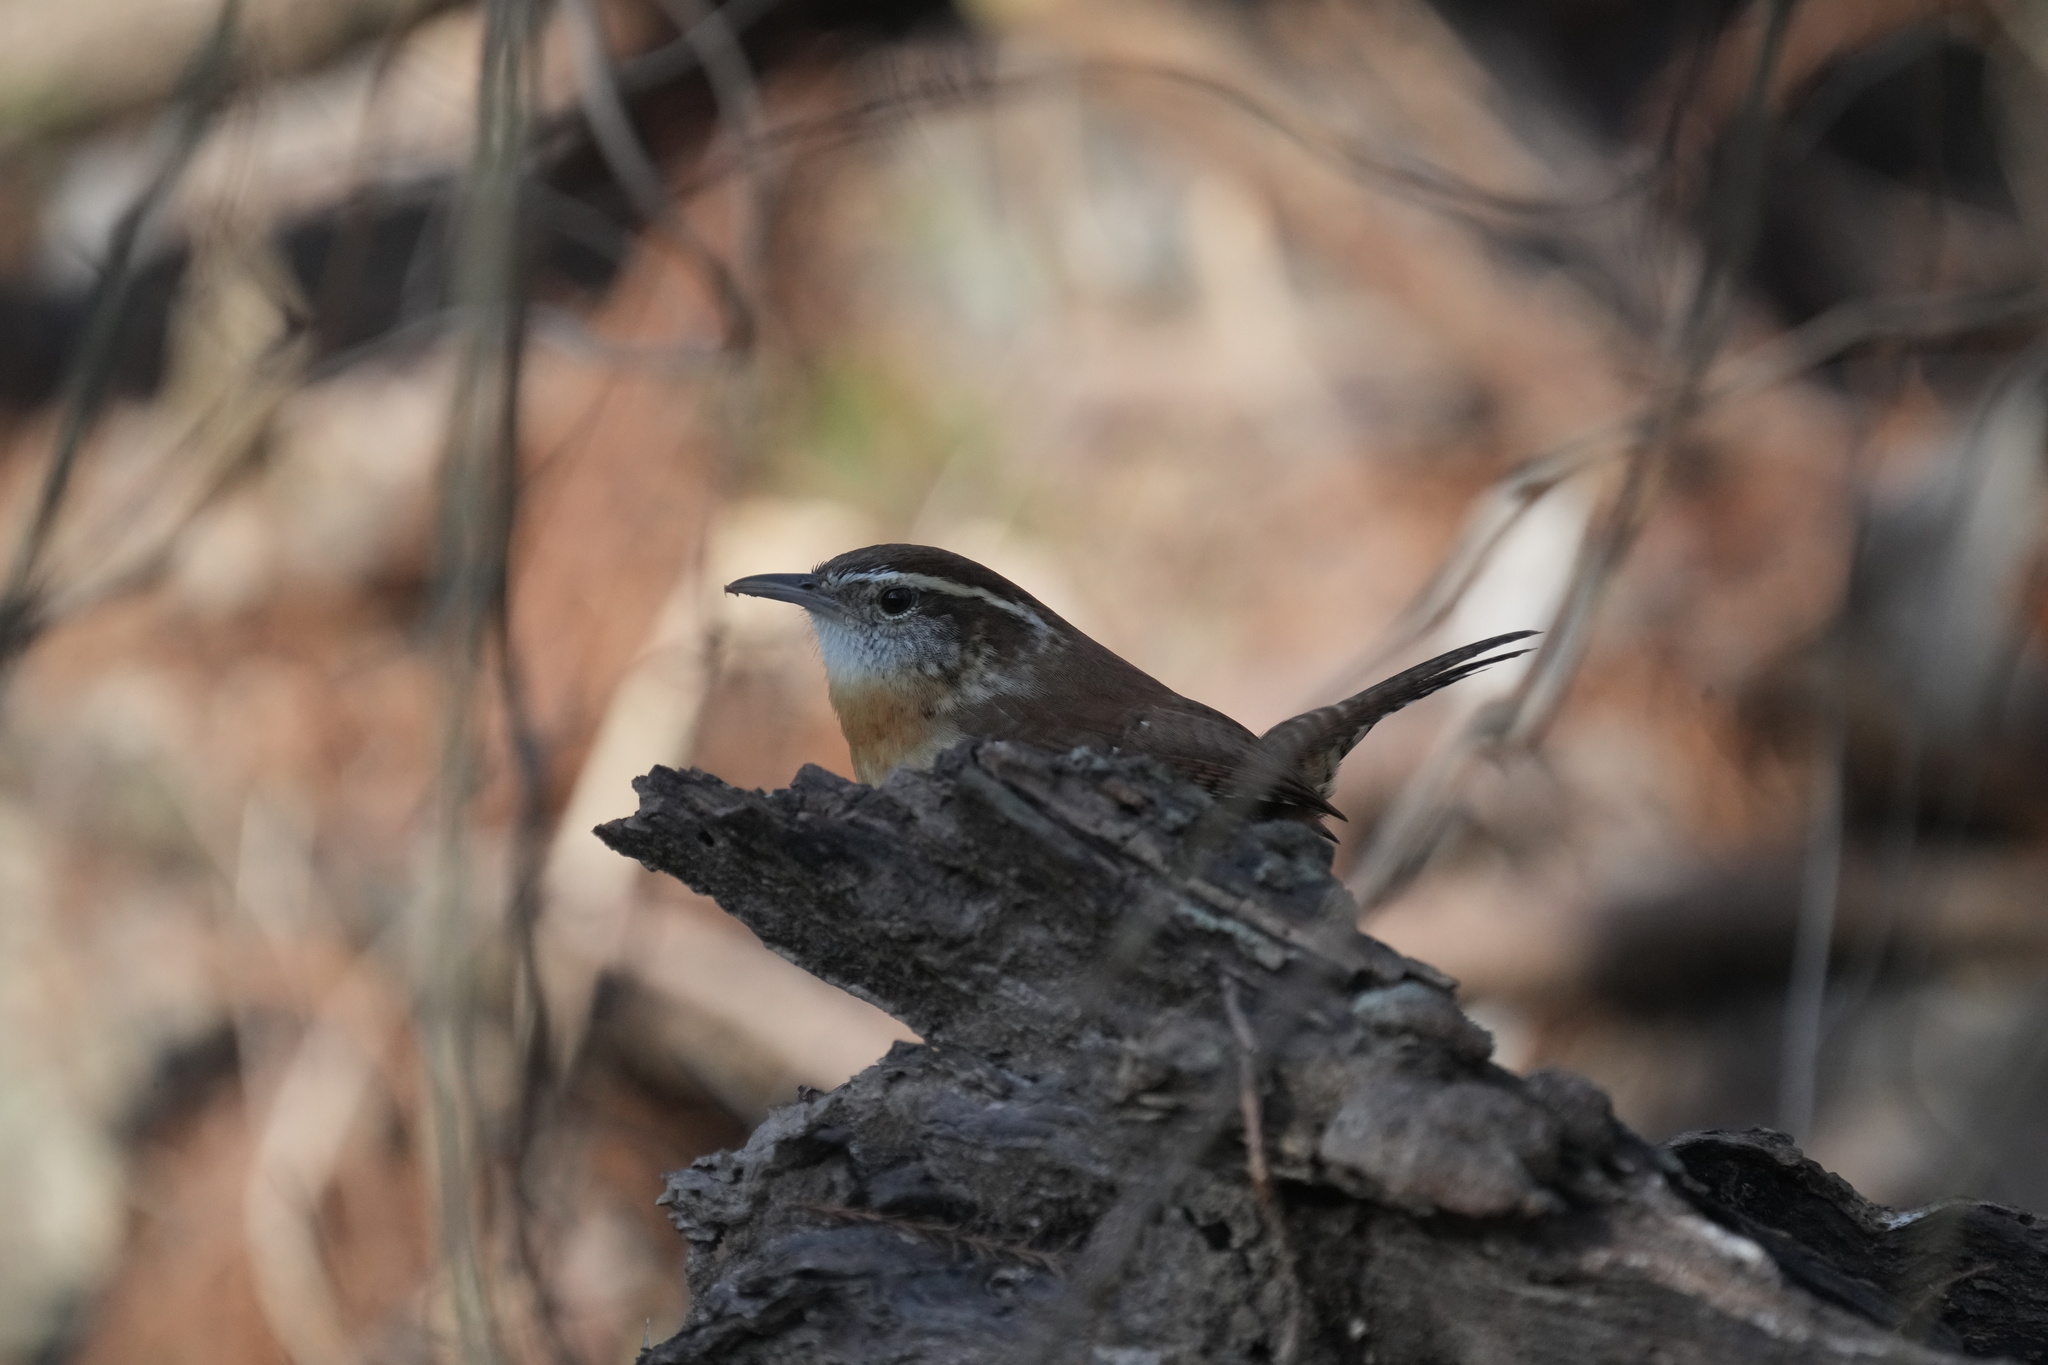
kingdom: Animalia
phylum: Chordata
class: Aves
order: Passeriformes
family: Troglodytidae
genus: Thryothorus
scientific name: Thryothorus ludovicianus
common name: Carolina wren
